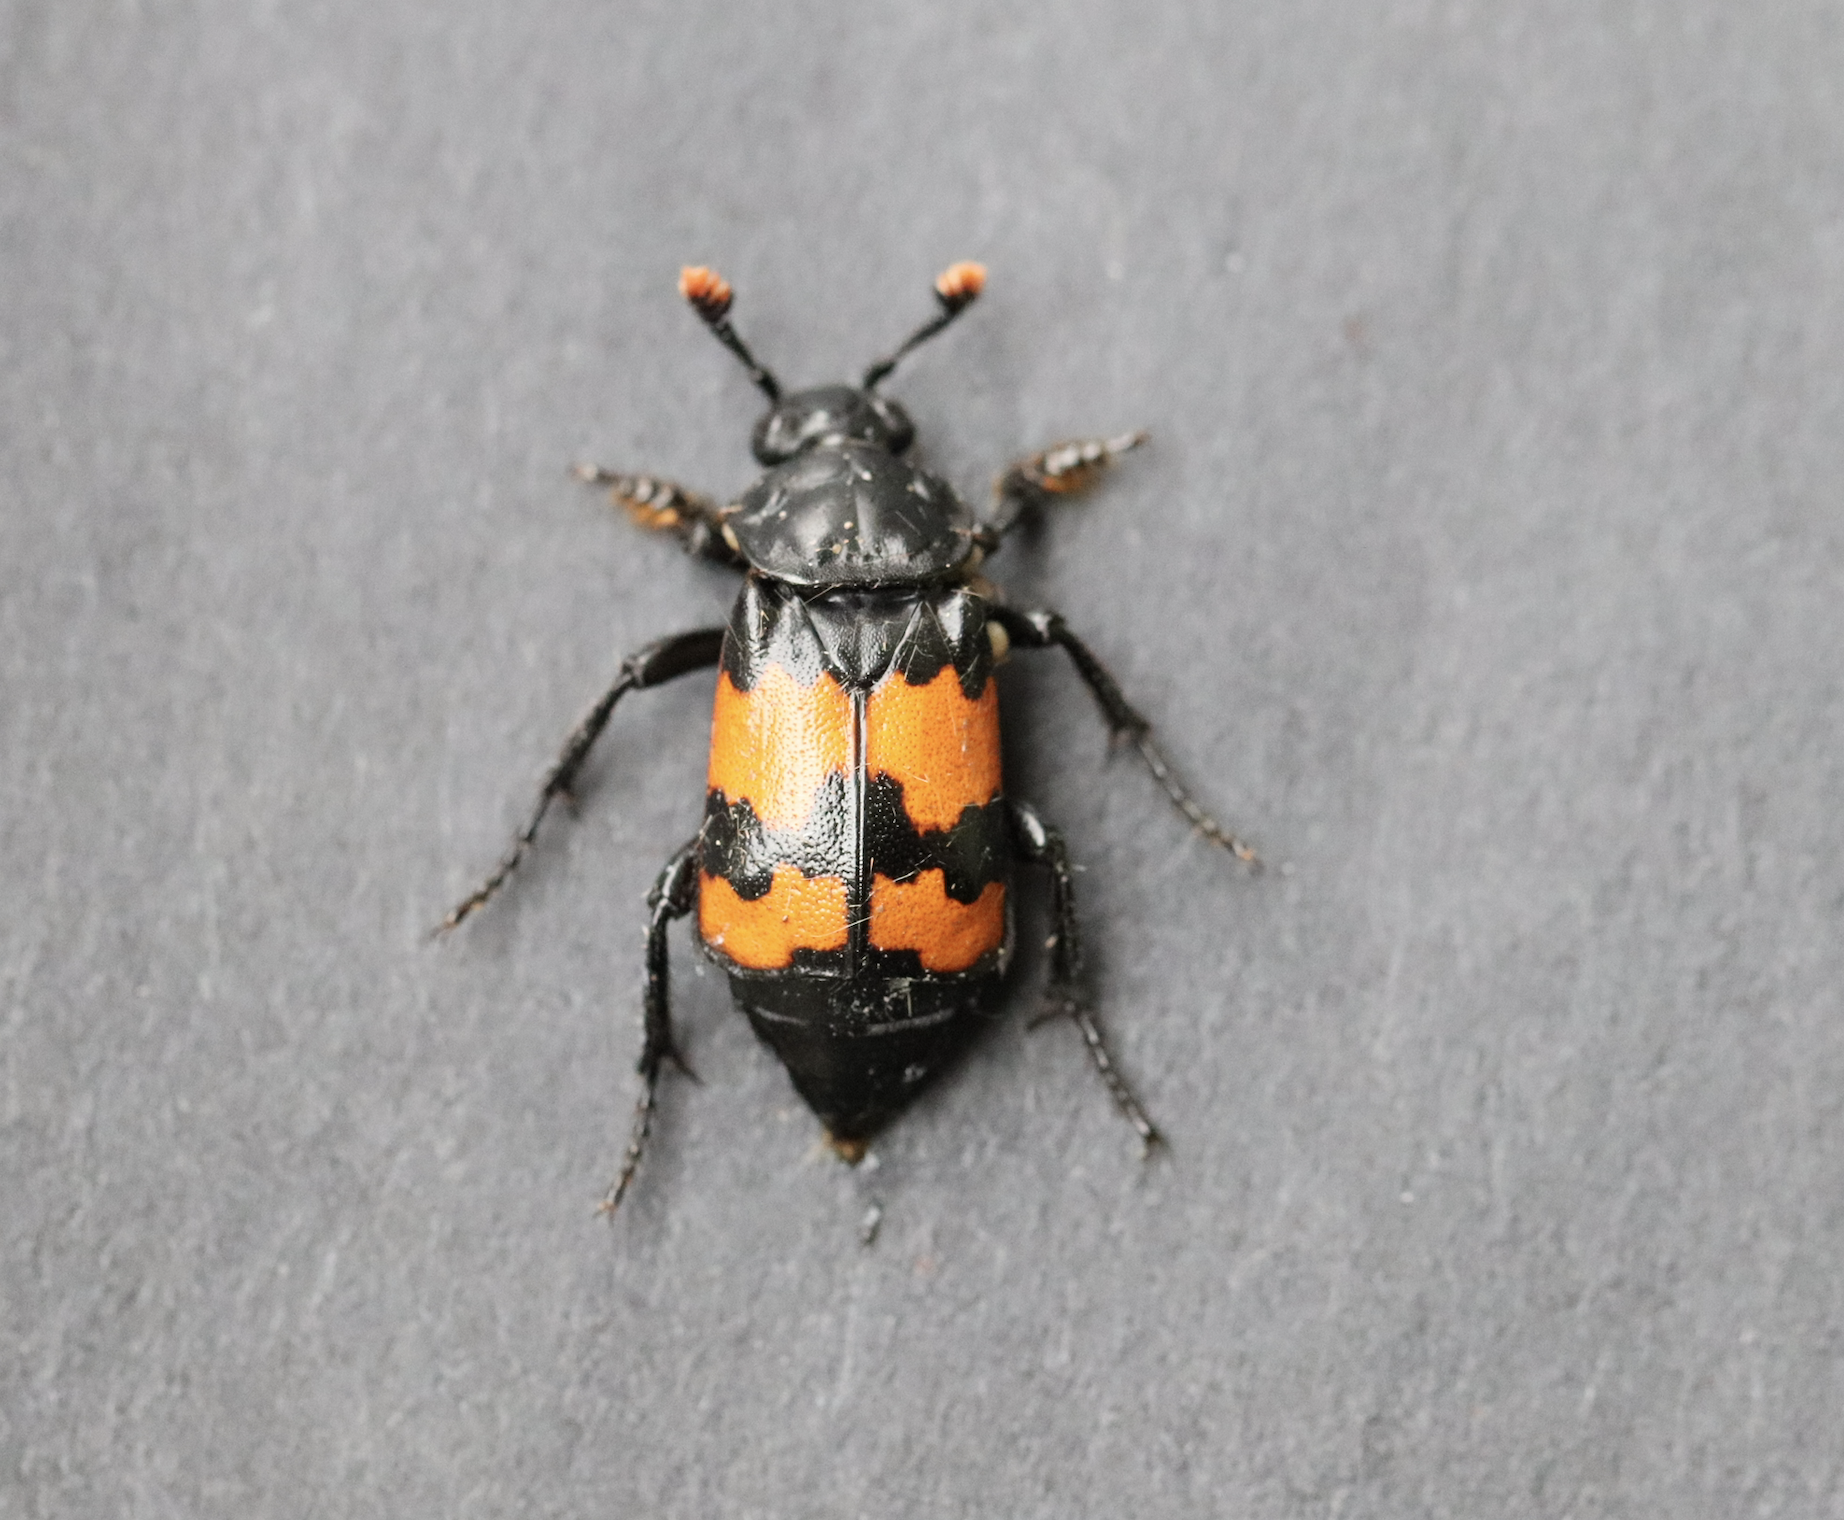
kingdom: Animalia
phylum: Arthropoda
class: Insecta
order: Coleoptera
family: Staphylinidae
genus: Nicrophorus
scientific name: Nicrophorus investigator
